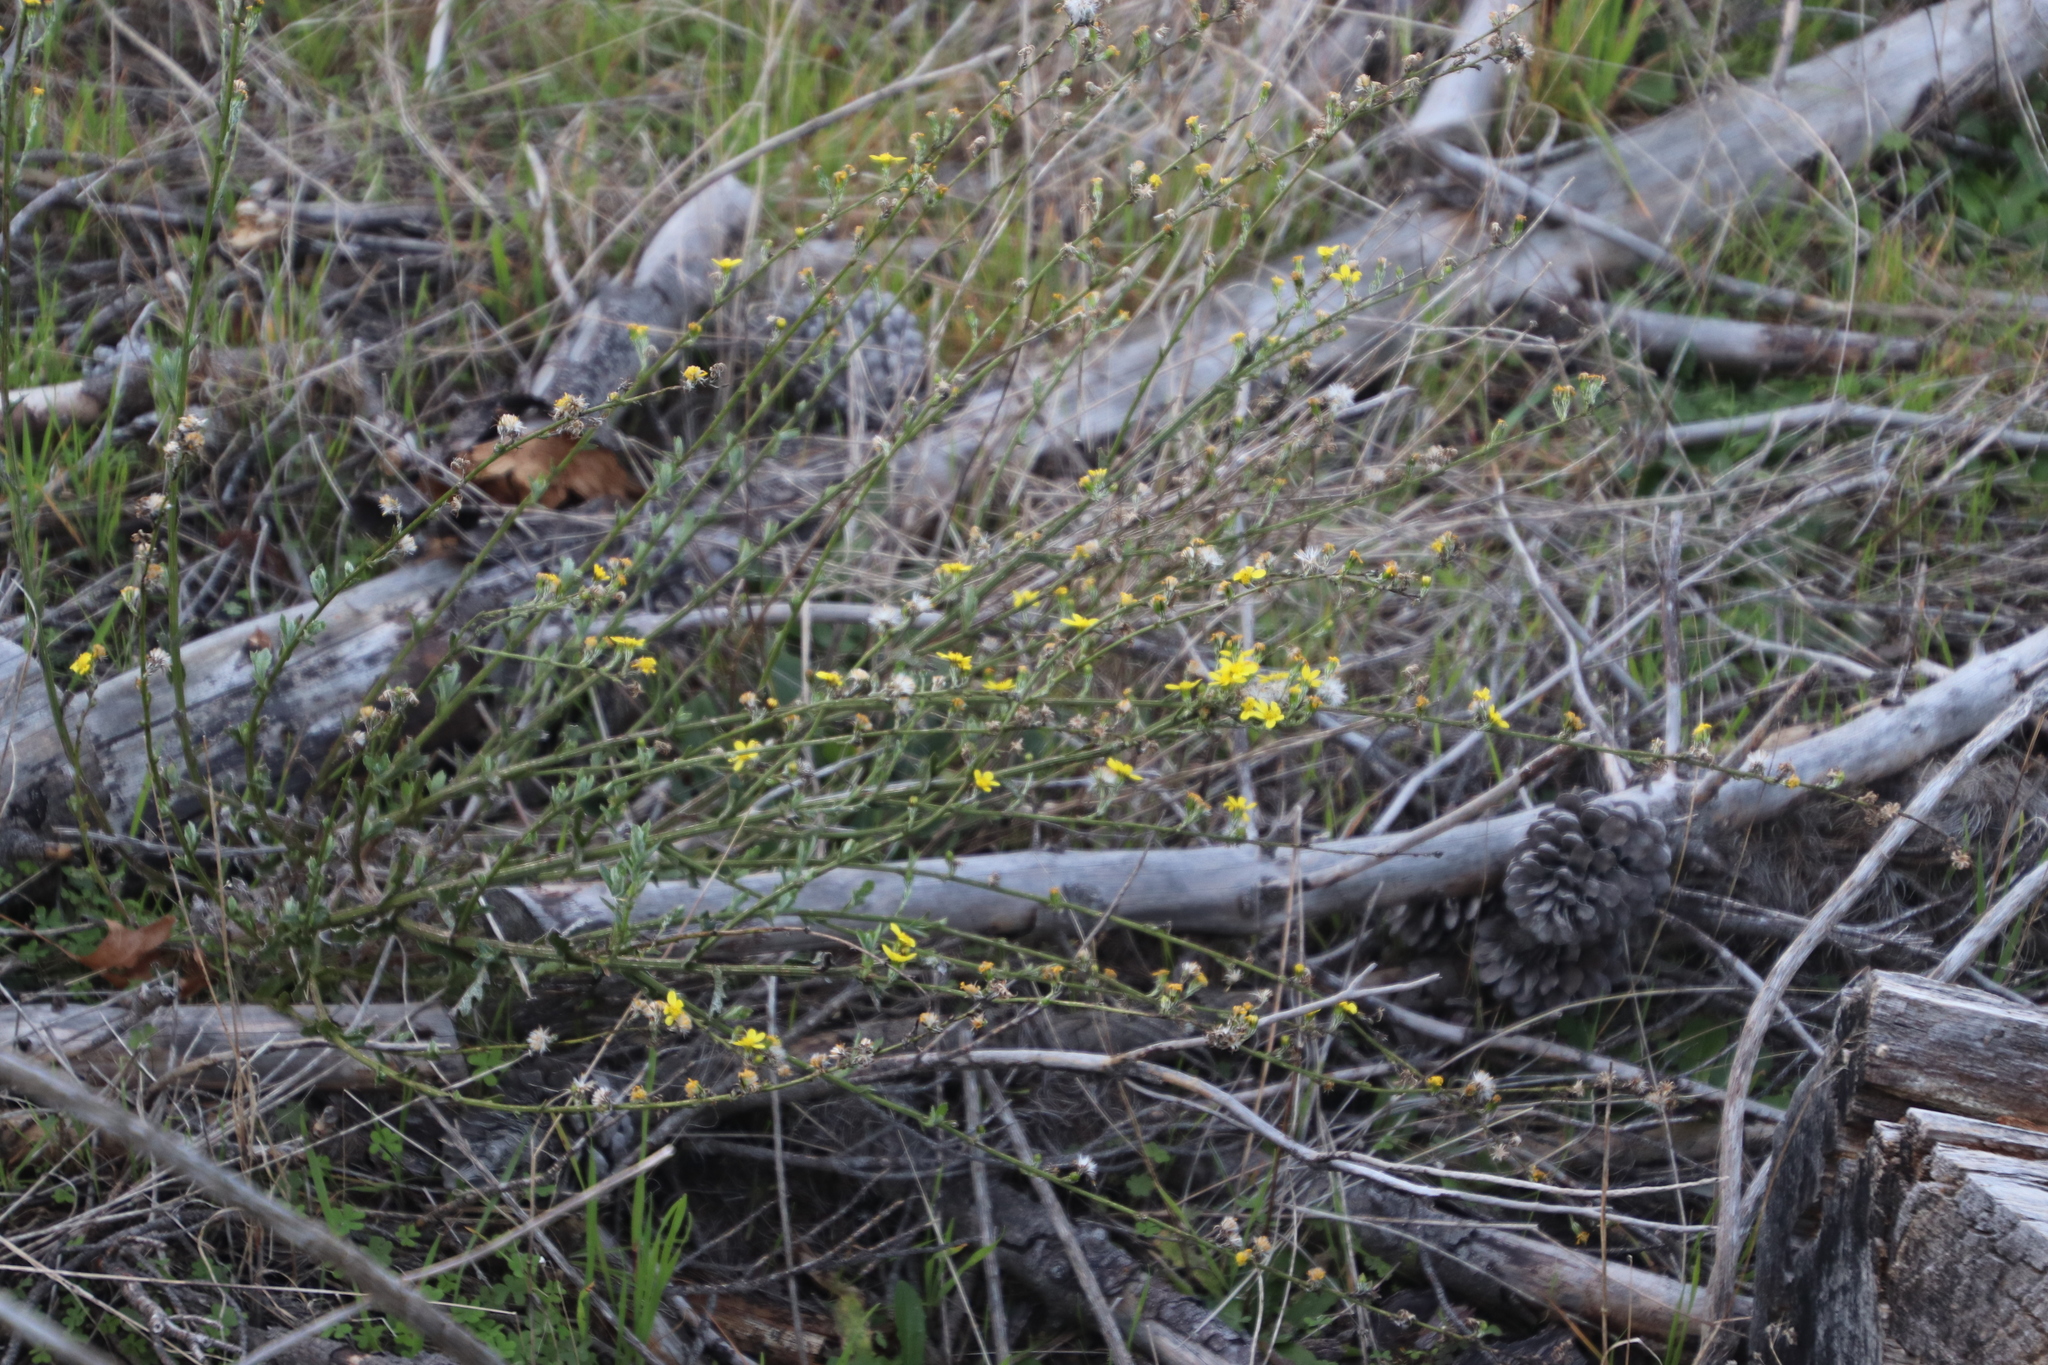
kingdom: Plantae
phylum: Tracheophyta
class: Magnoliopsida
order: Asterales
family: Asteraceae
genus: Senecio
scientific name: Senecio pubigerus
